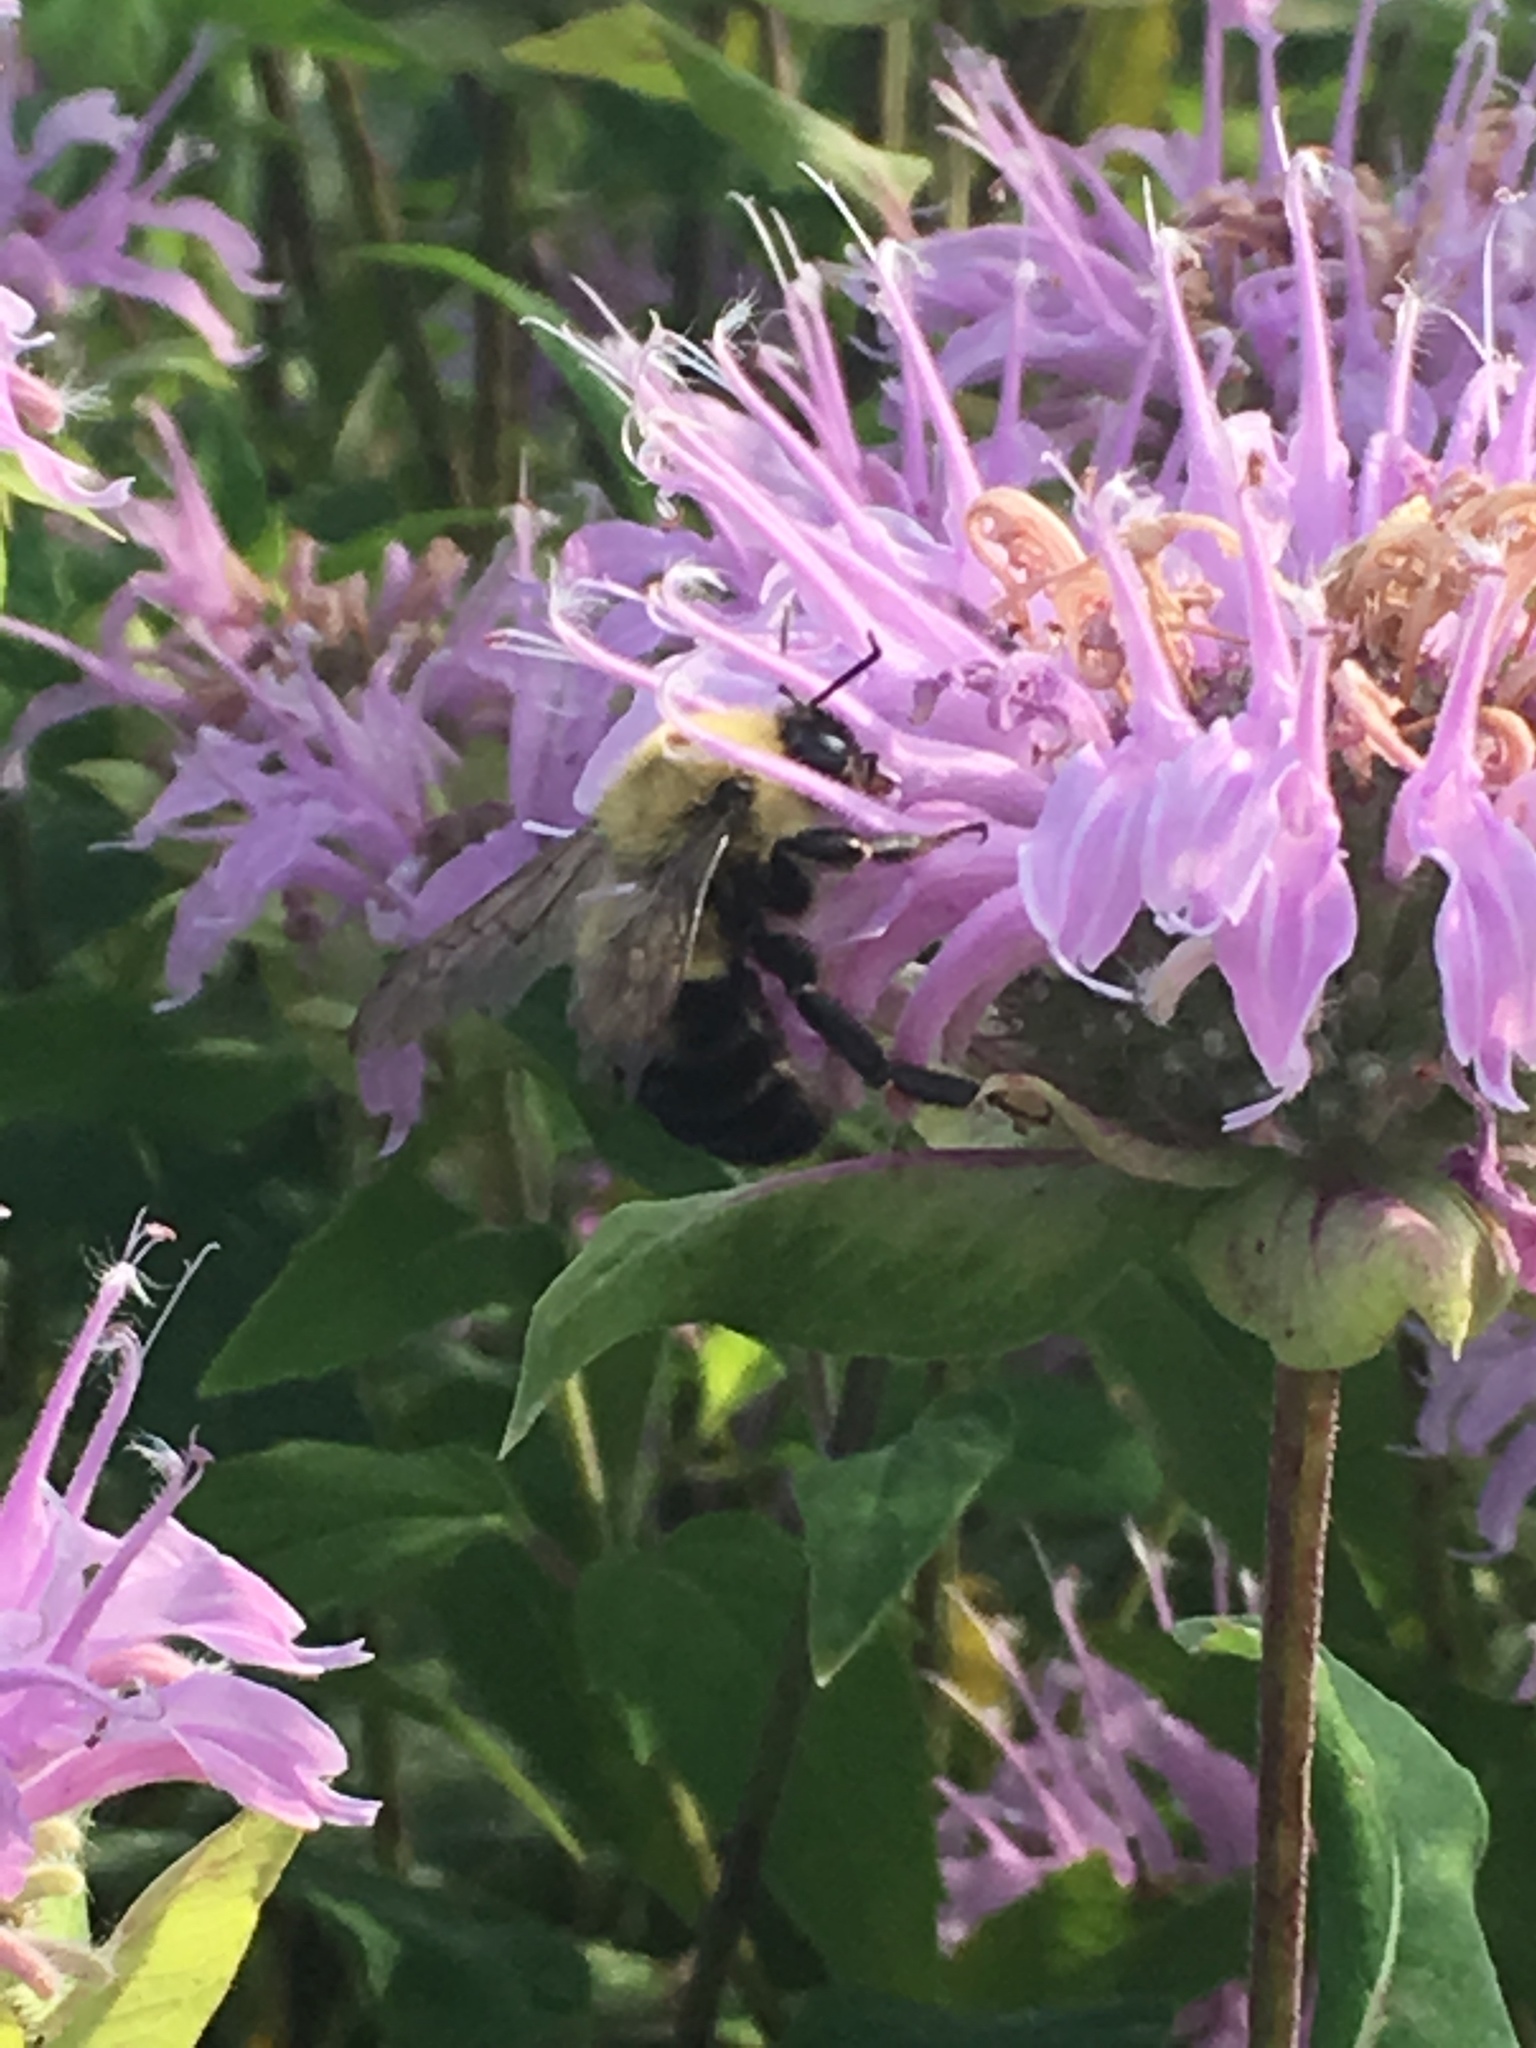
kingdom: Animalia
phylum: Arthropoda
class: Insecta
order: Hymenoptera
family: Apidae
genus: Bombus
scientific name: Bombus bimaculatus
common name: Two-spotted bumble bee
